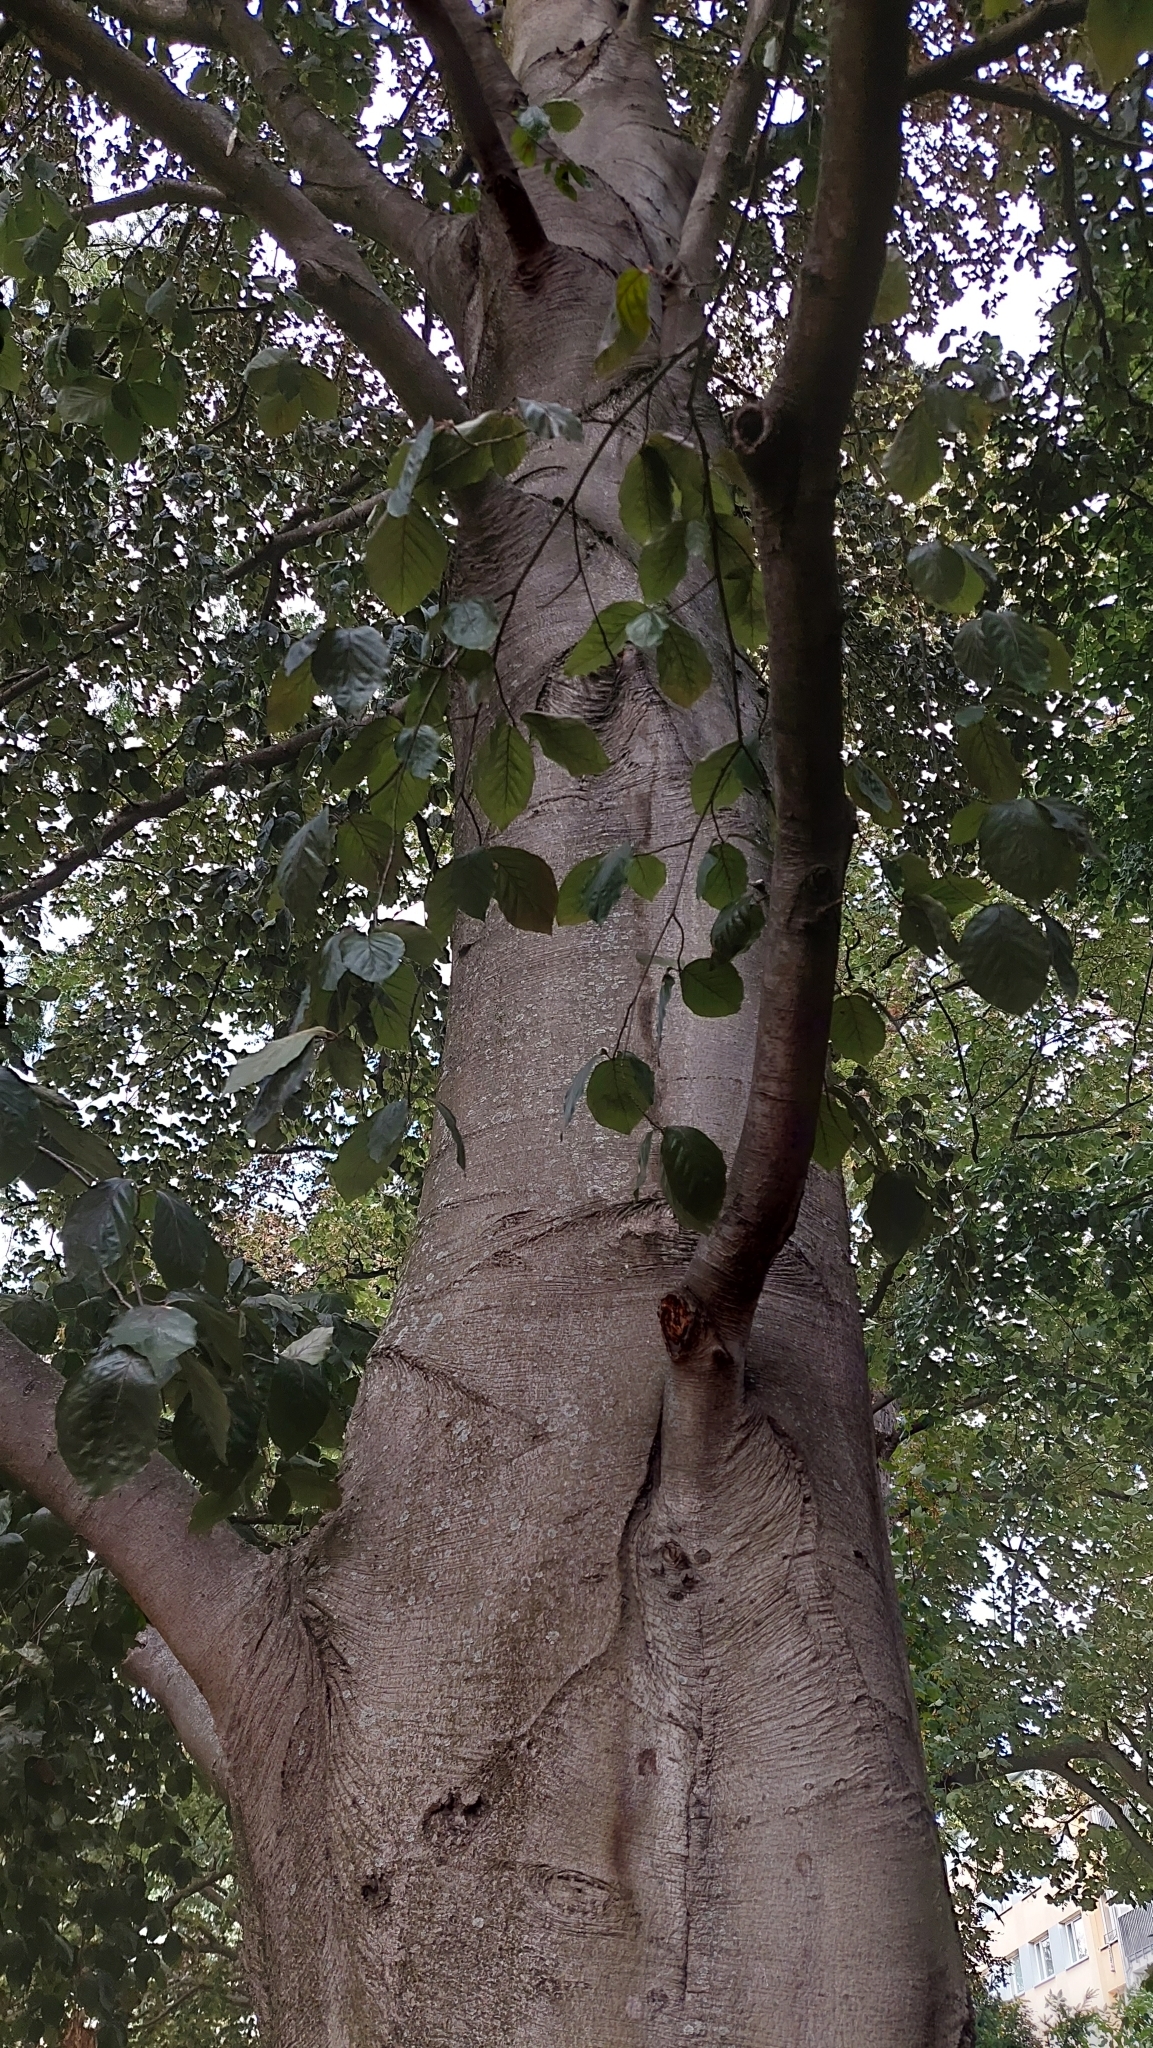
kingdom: Plantae
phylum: Tracheophyta
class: Magnoliopsida
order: Fagales
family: Fagaceae
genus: Fagus
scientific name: Fagus sylvatica
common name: Beech
